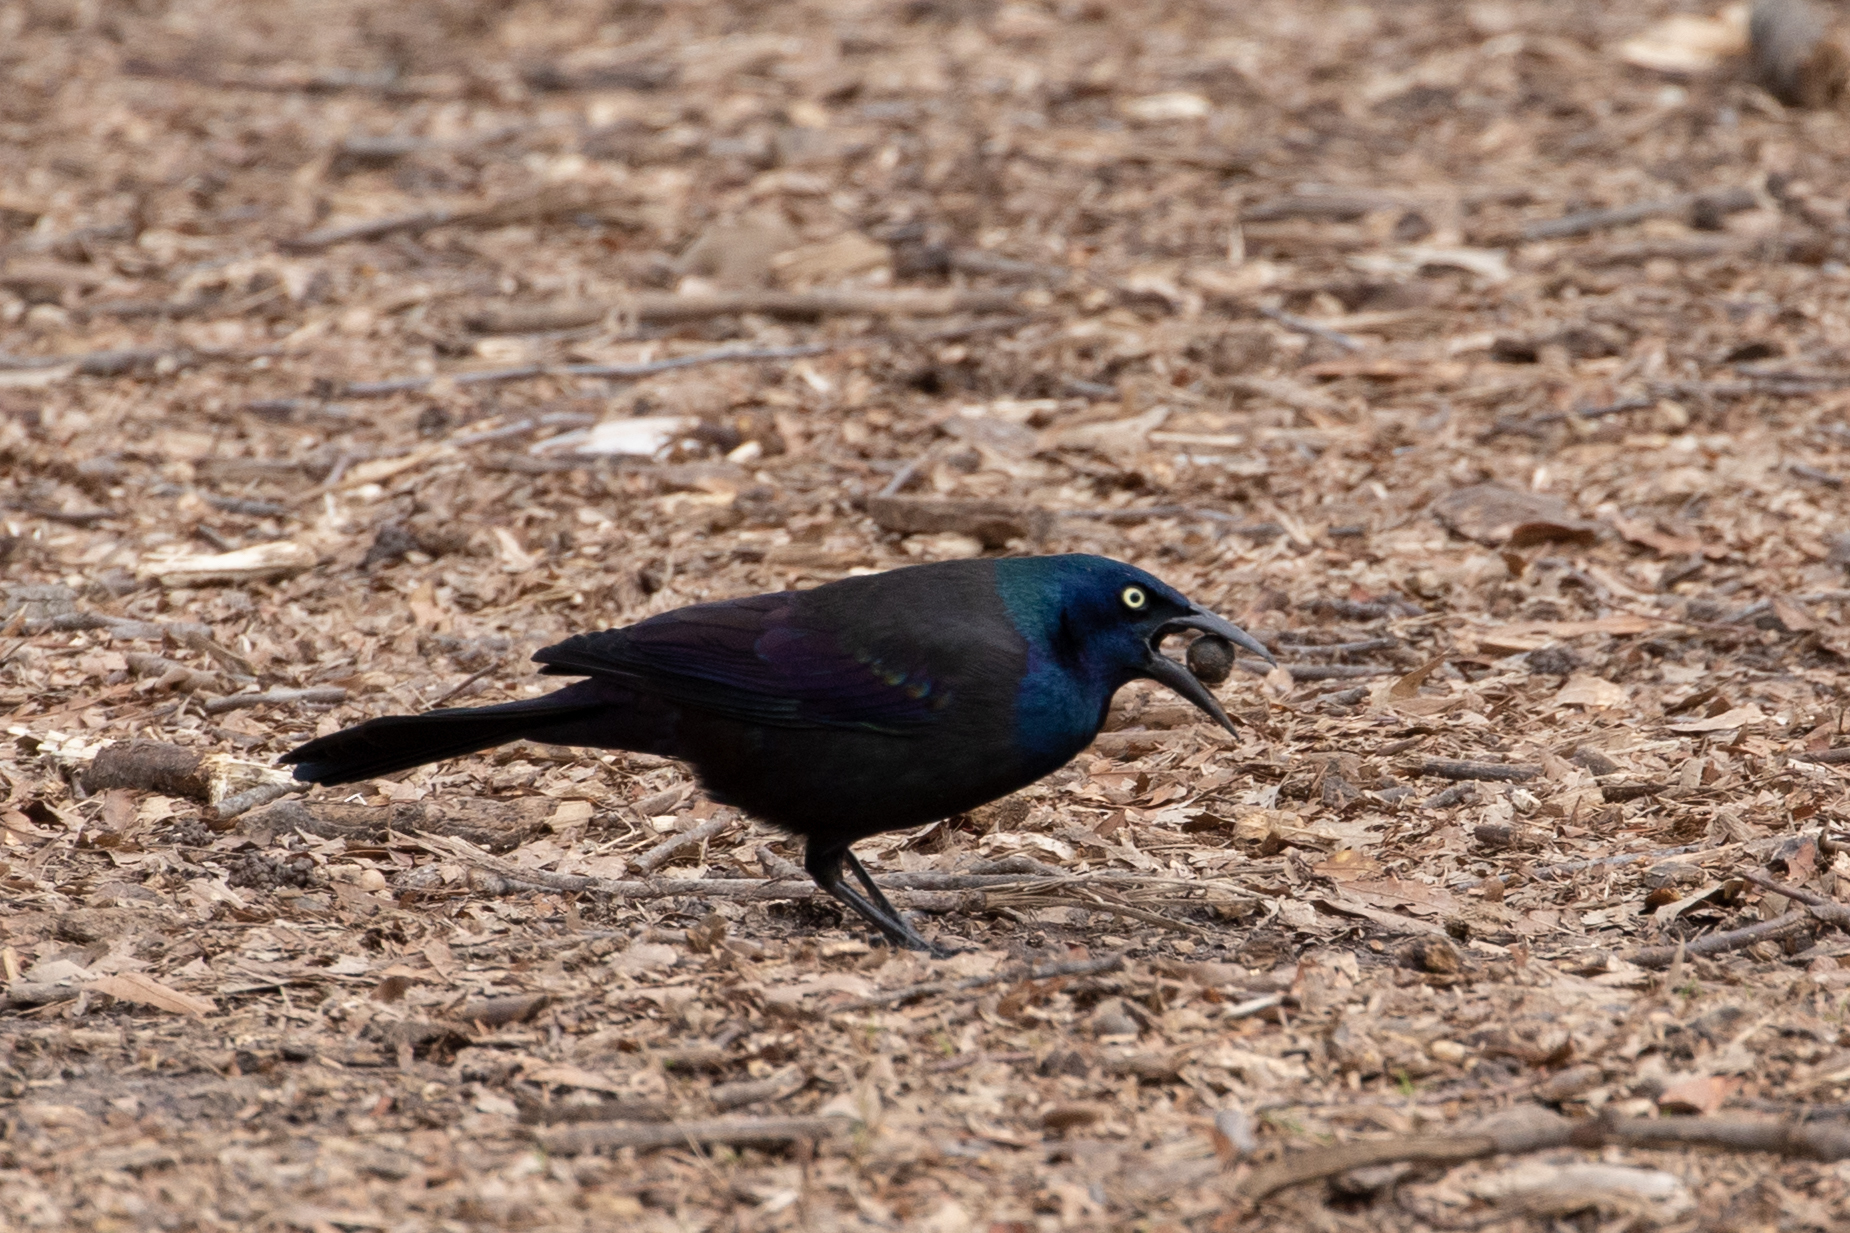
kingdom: Animalia
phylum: Chordata
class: Aves
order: Passeriformes
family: Icteridae
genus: Quiscalus
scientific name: Quiscalus quiscula
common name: Common grackle
